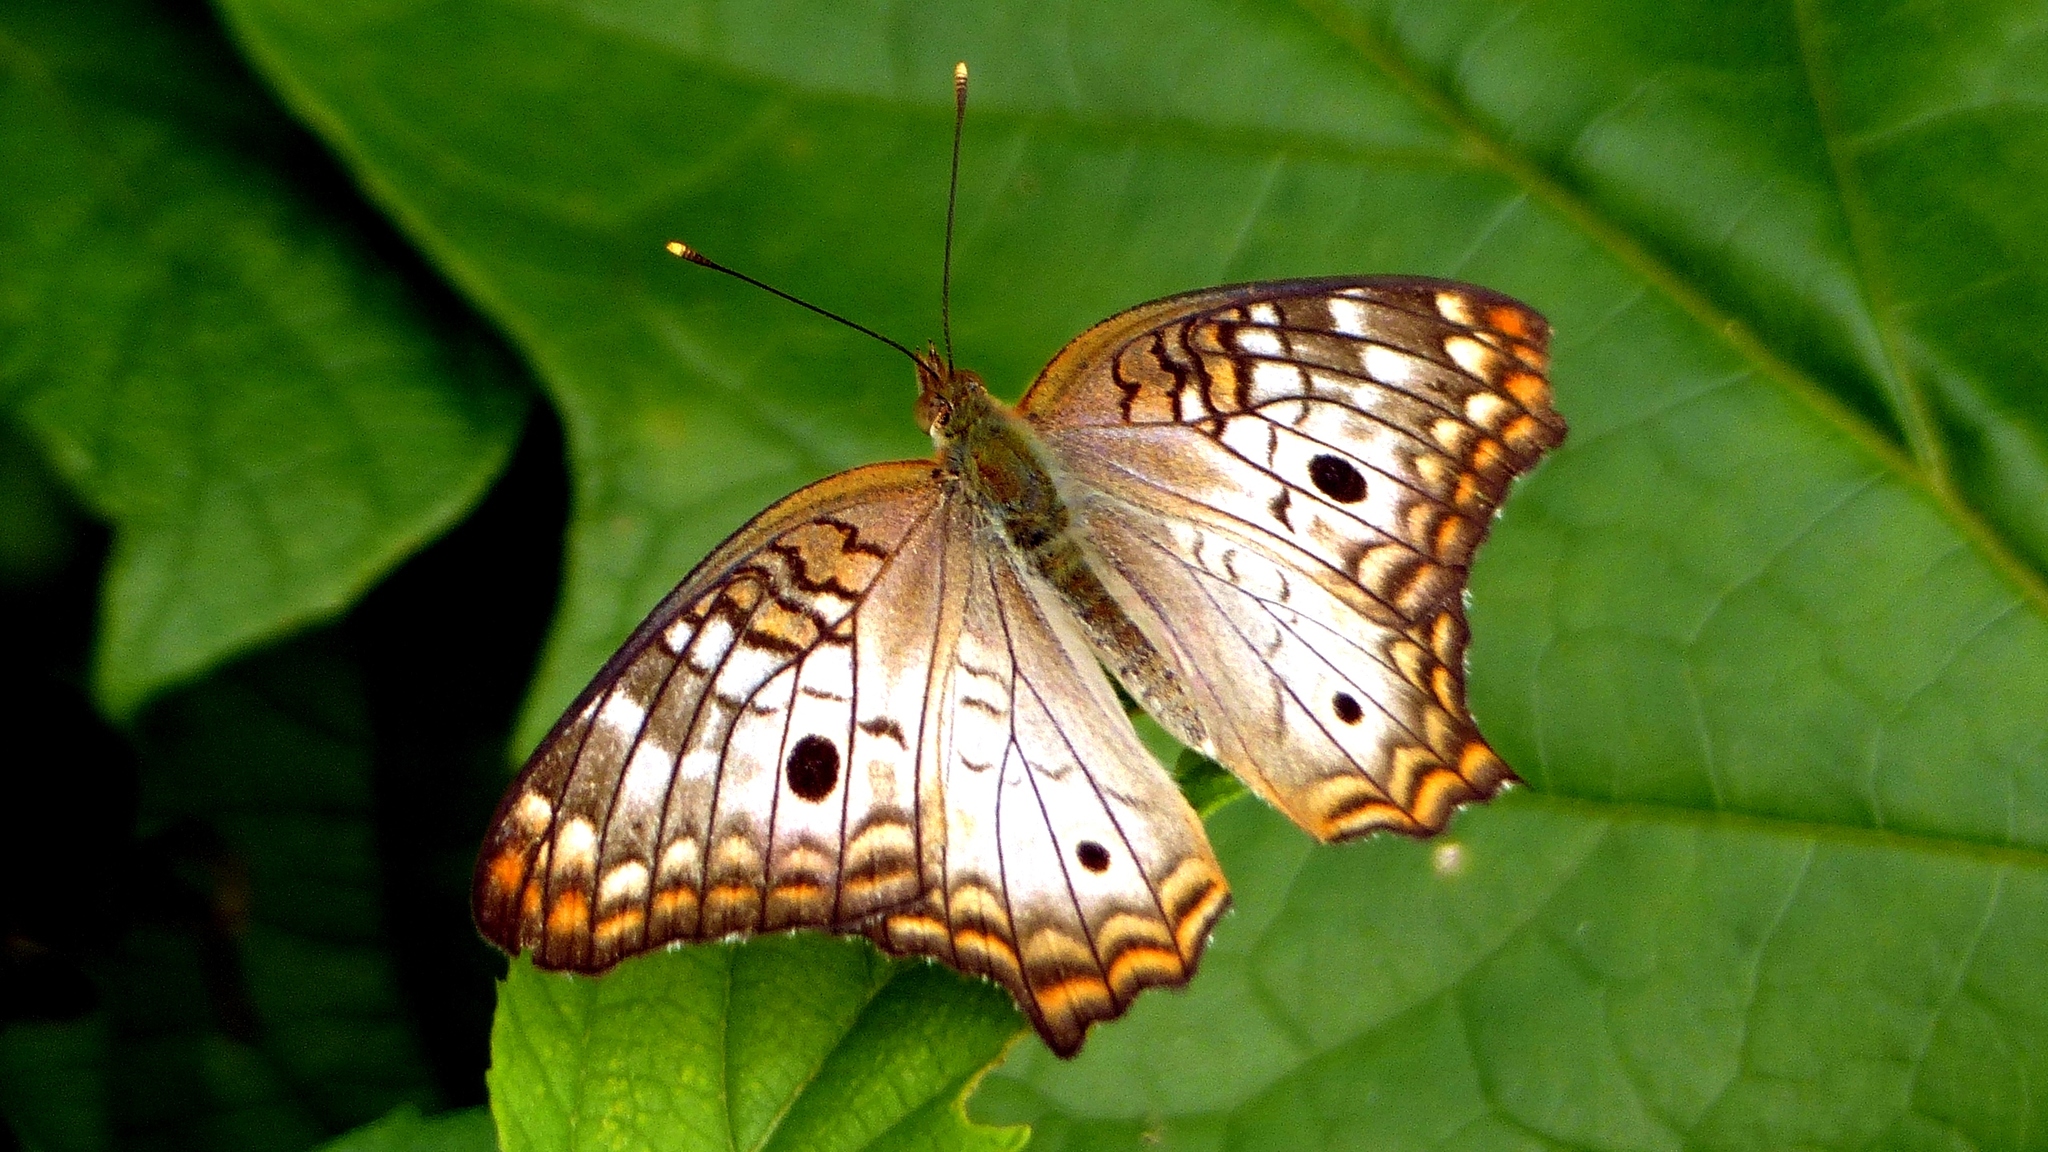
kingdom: Animalia
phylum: Arthropoda
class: Insecta
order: Lepidoptera
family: Nymphalidae
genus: Anartia
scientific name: Anartia jatrophae
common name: White peacock
